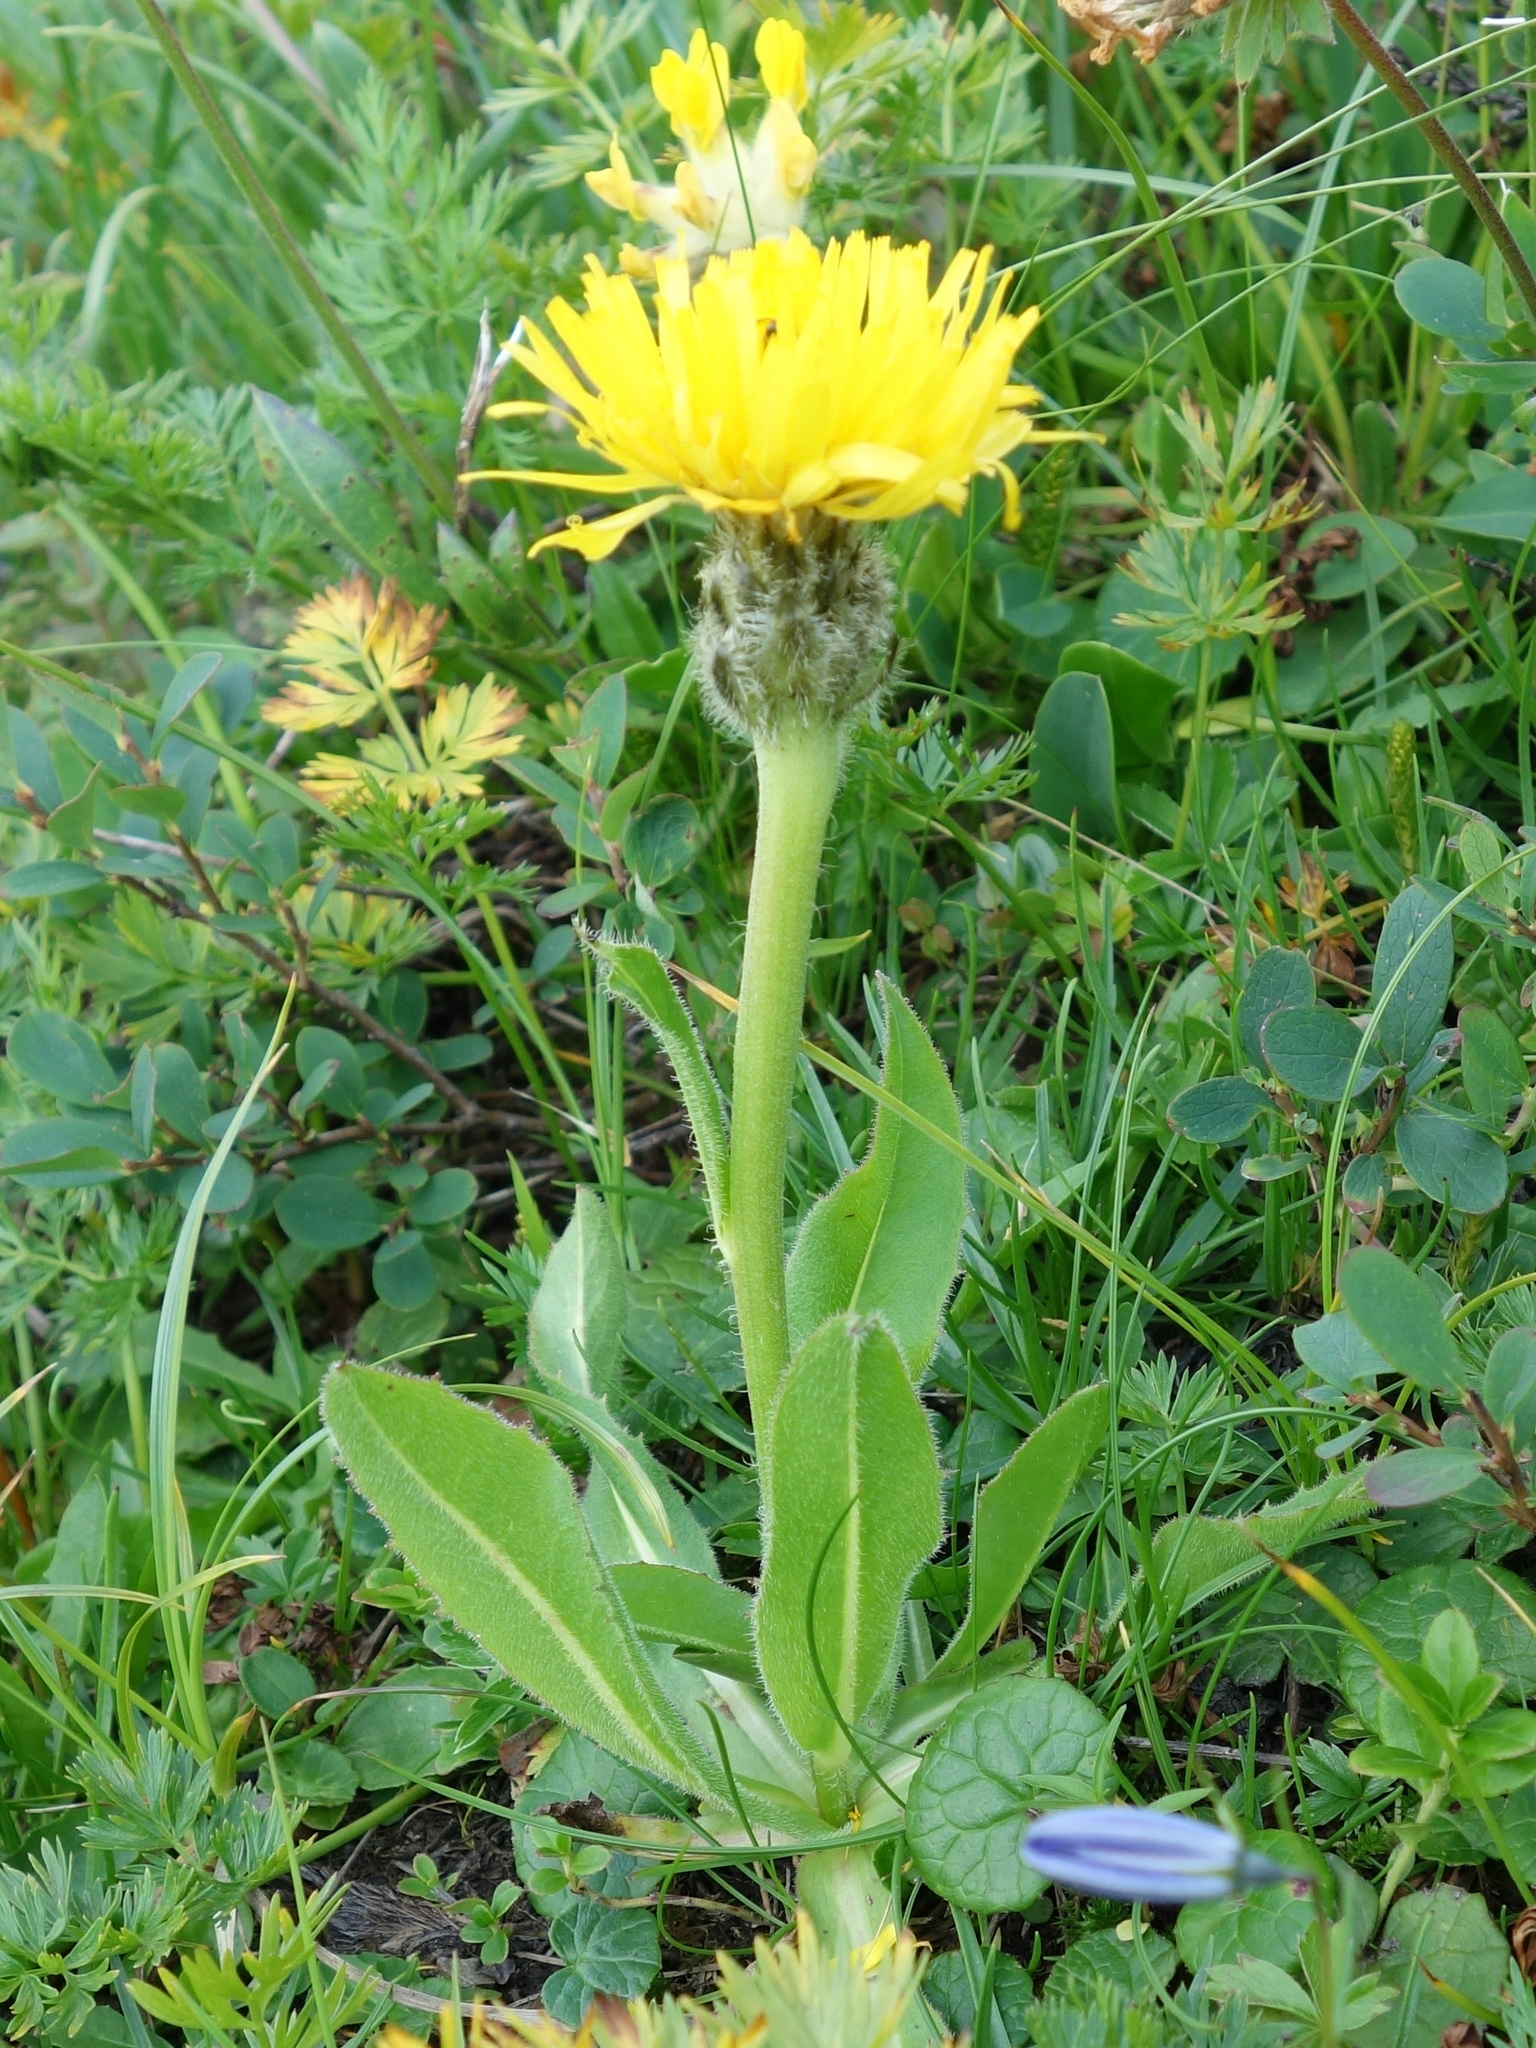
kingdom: Plantae
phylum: Tracheophyta
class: Magnoliopsida
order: Asterales
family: Asteraceae
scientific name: Asteraceae
